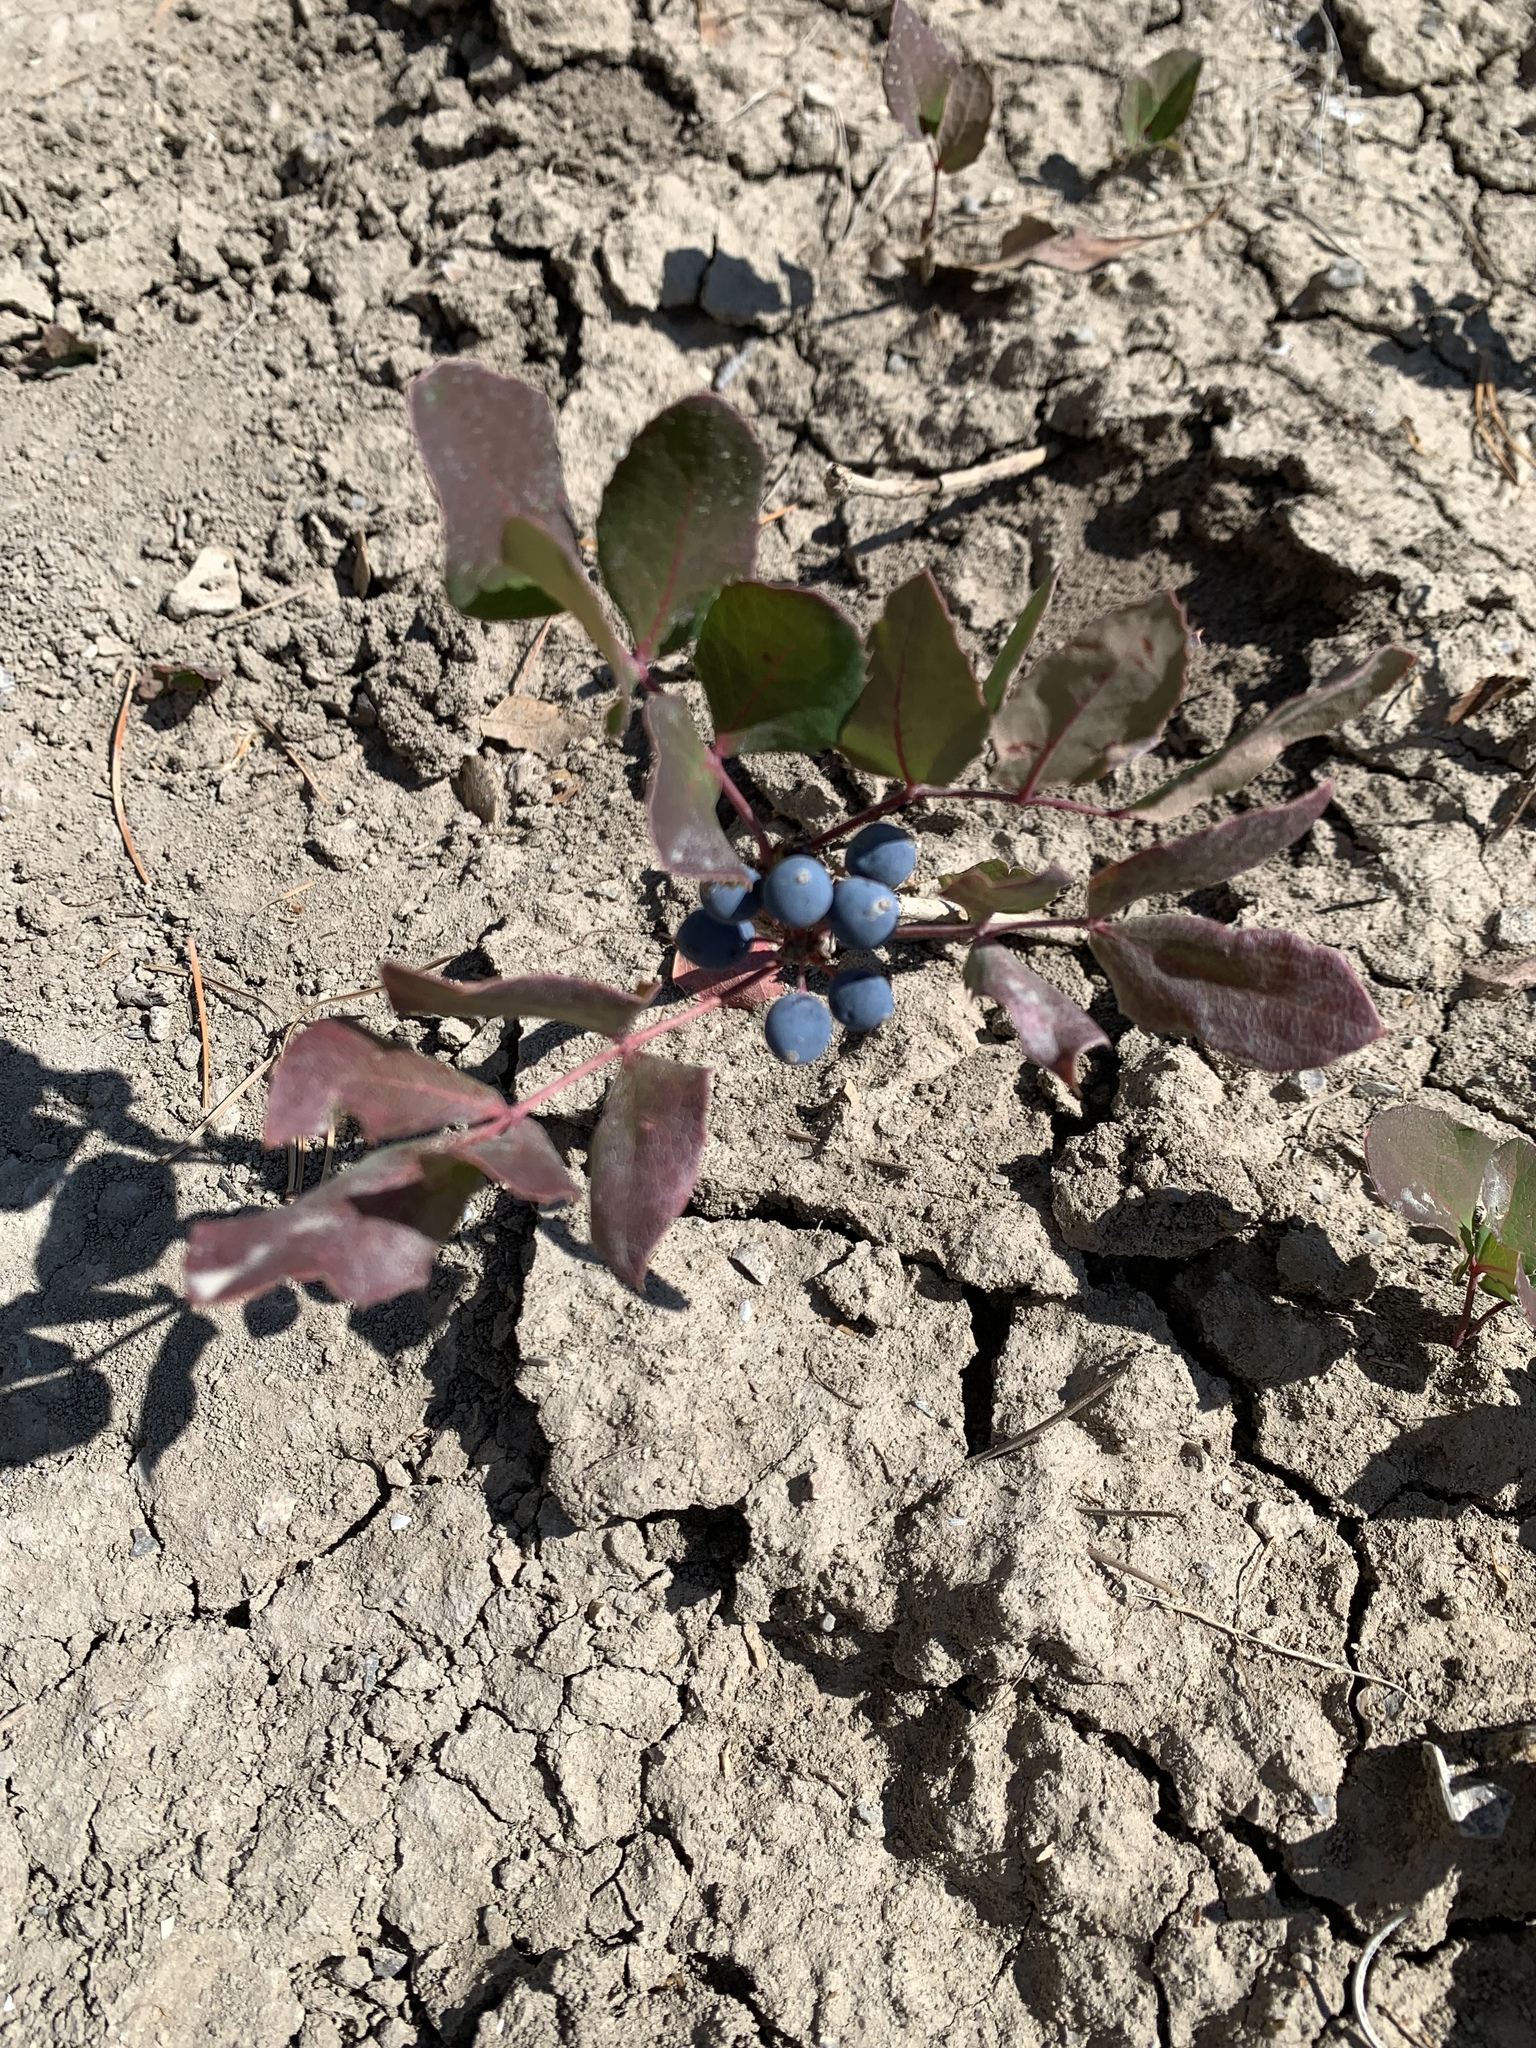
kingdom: Plantae
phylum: Tracheophyta
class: Magnoliopsida
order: Ranunculales
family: Berberidaceae
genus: Mahonia
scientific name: Mahonia repens
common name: Creeping oregon-grape
